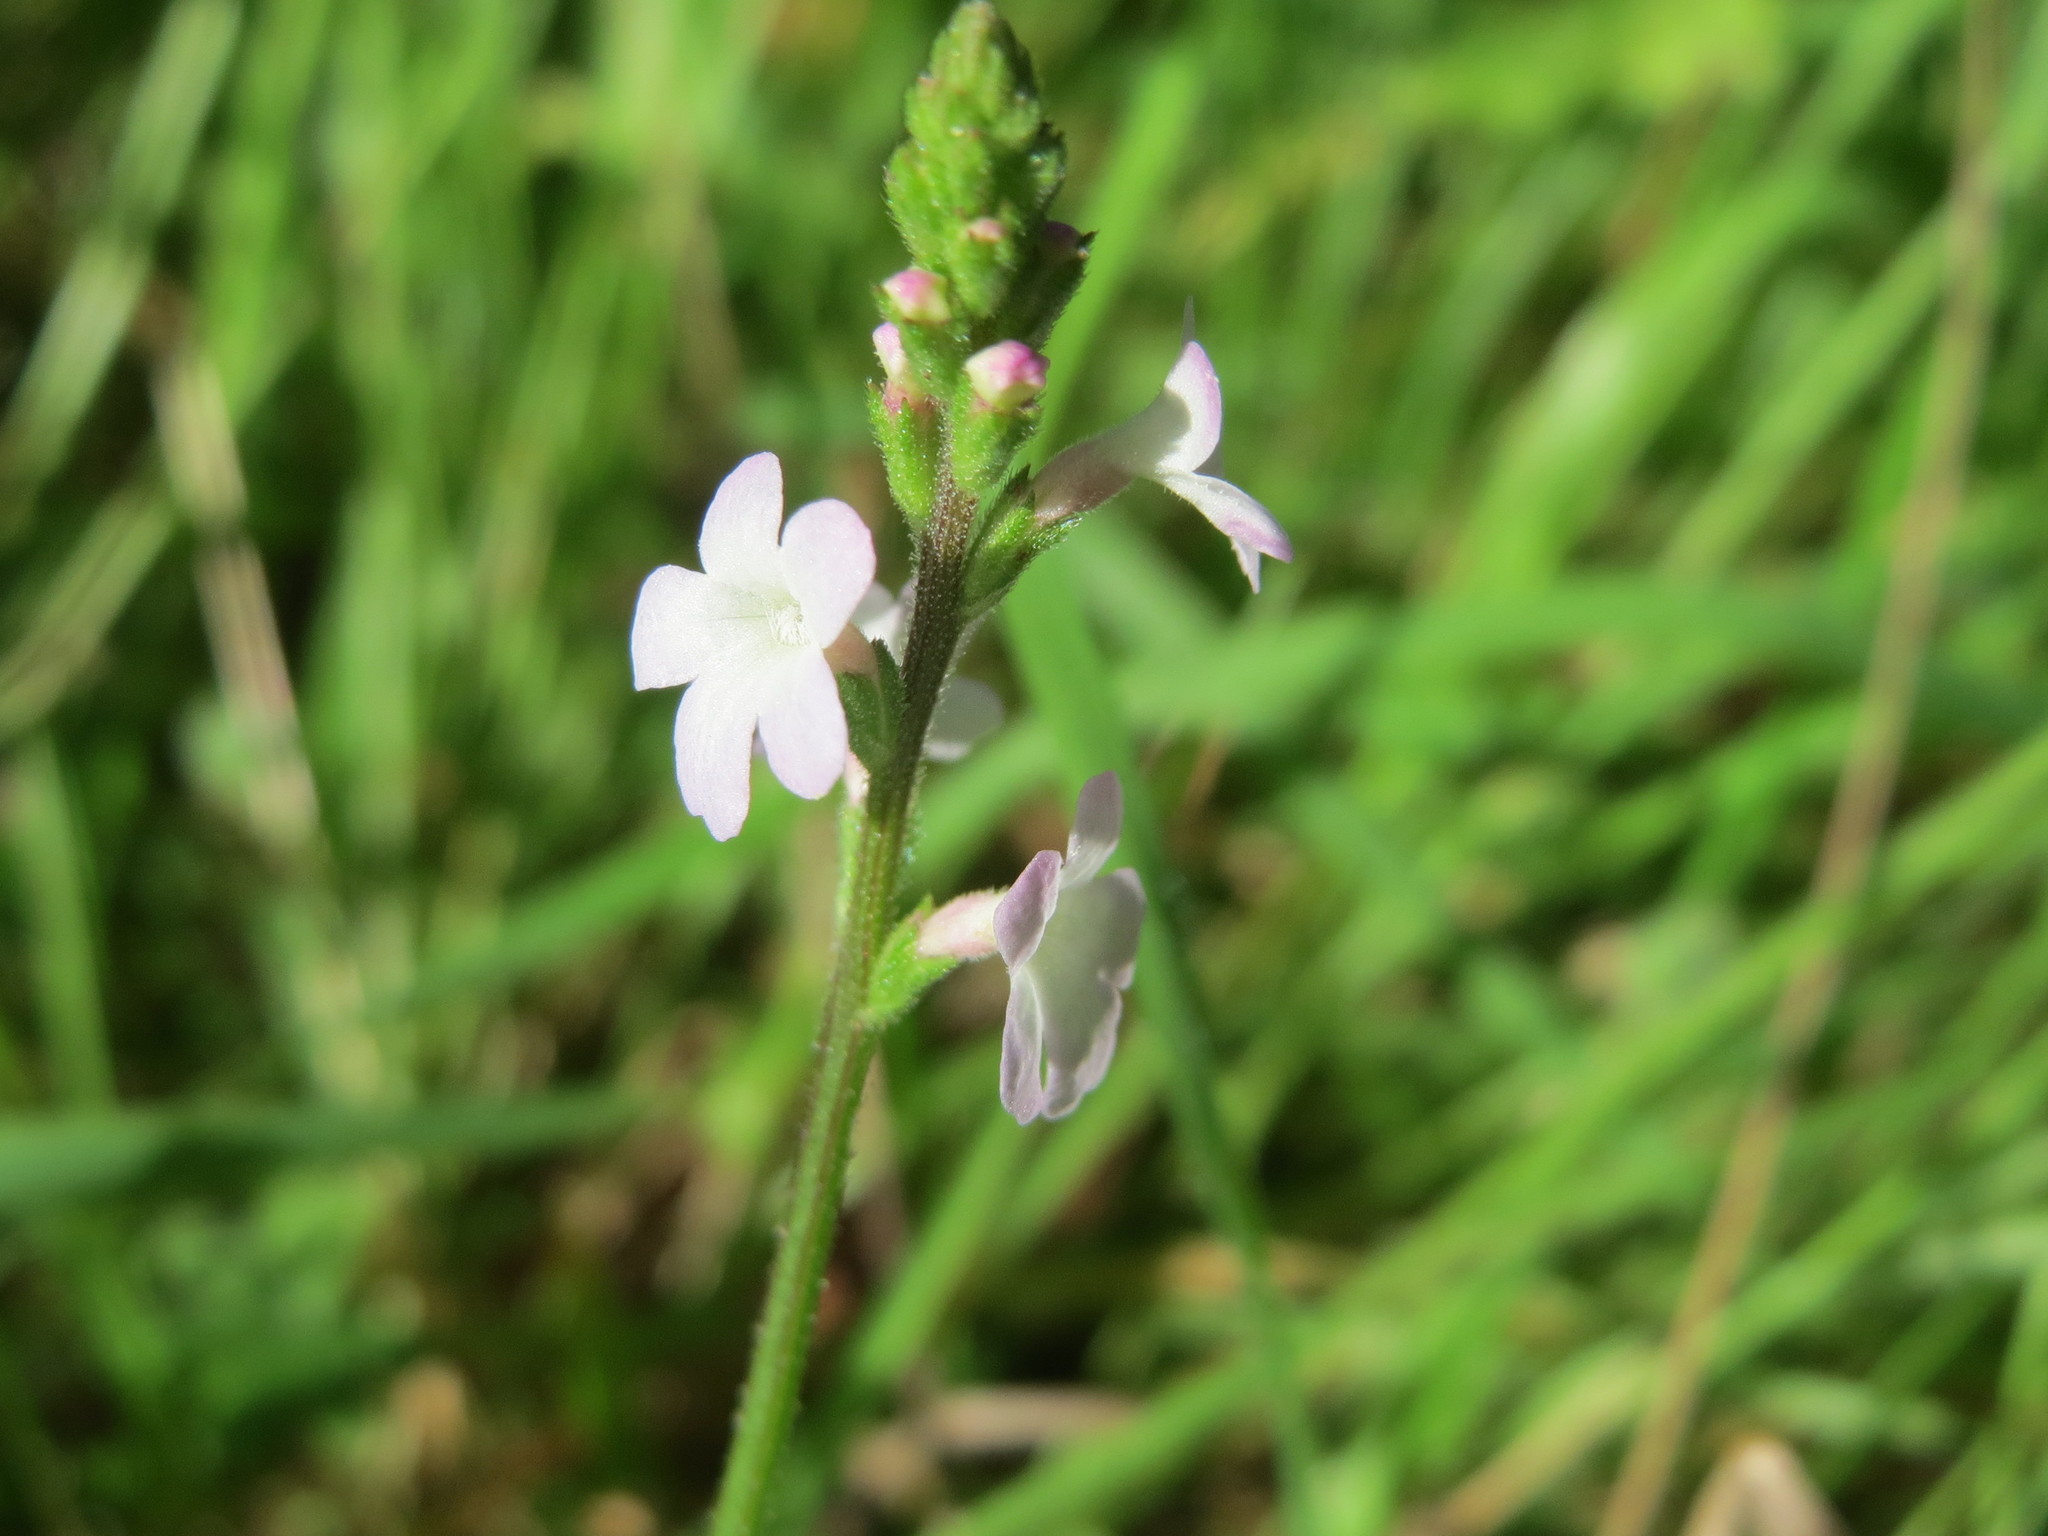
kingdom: Plantae
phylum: Tracheophyta
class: Magnoliopsida
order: Lamiales
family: Verbenaceae
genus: Verbena
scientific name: Verbena officinalis
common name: Vervain
